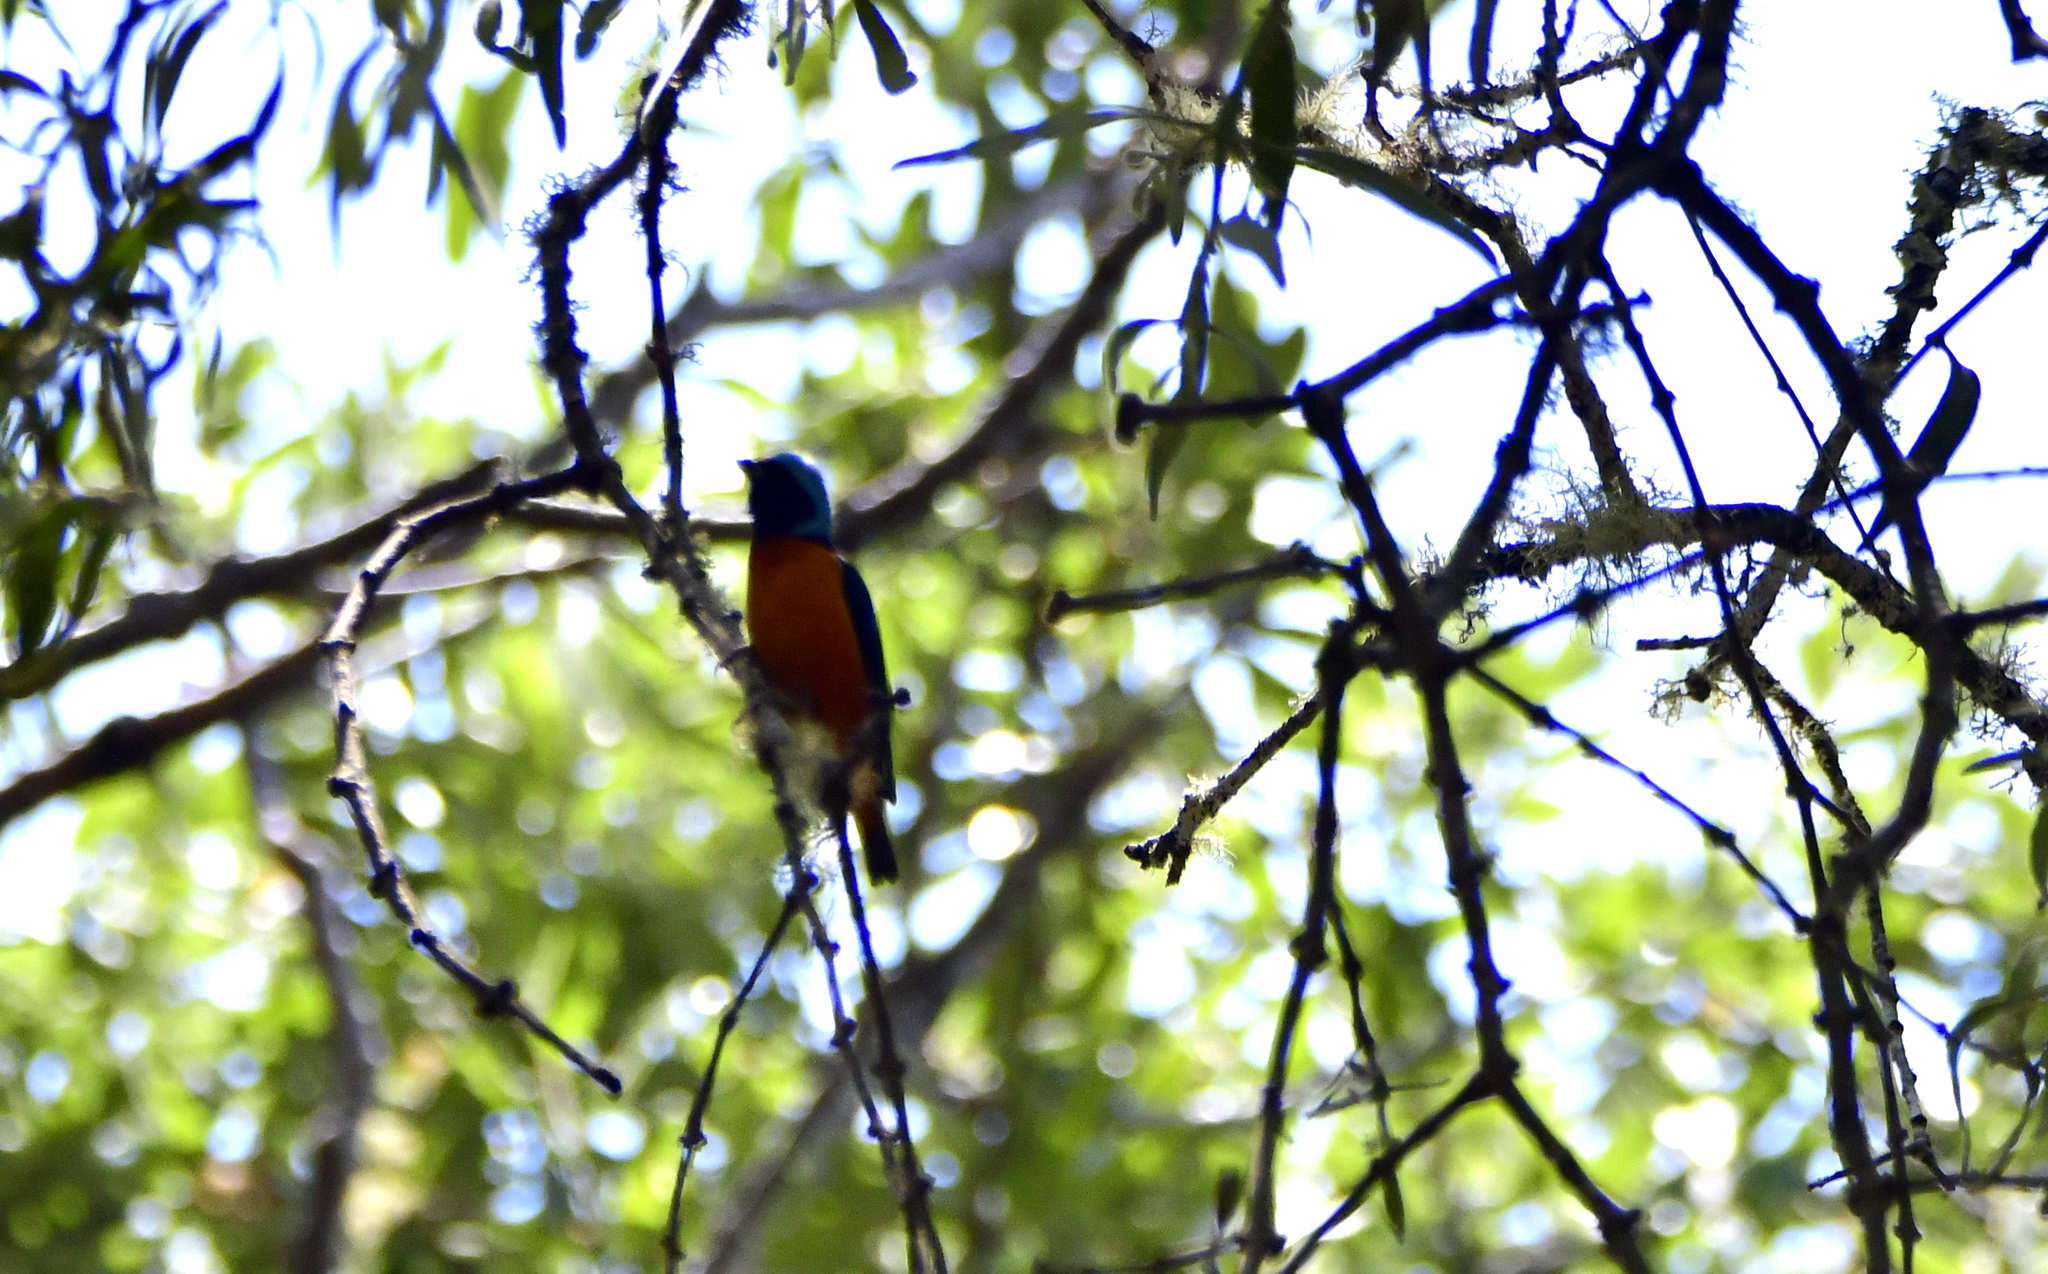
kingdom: Animalia
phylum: Chordata
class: Aves
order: Passeriformes
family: Fringillidae
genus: Euphonia
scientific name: Euphonia elegantissima
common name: Elegant euphonia
